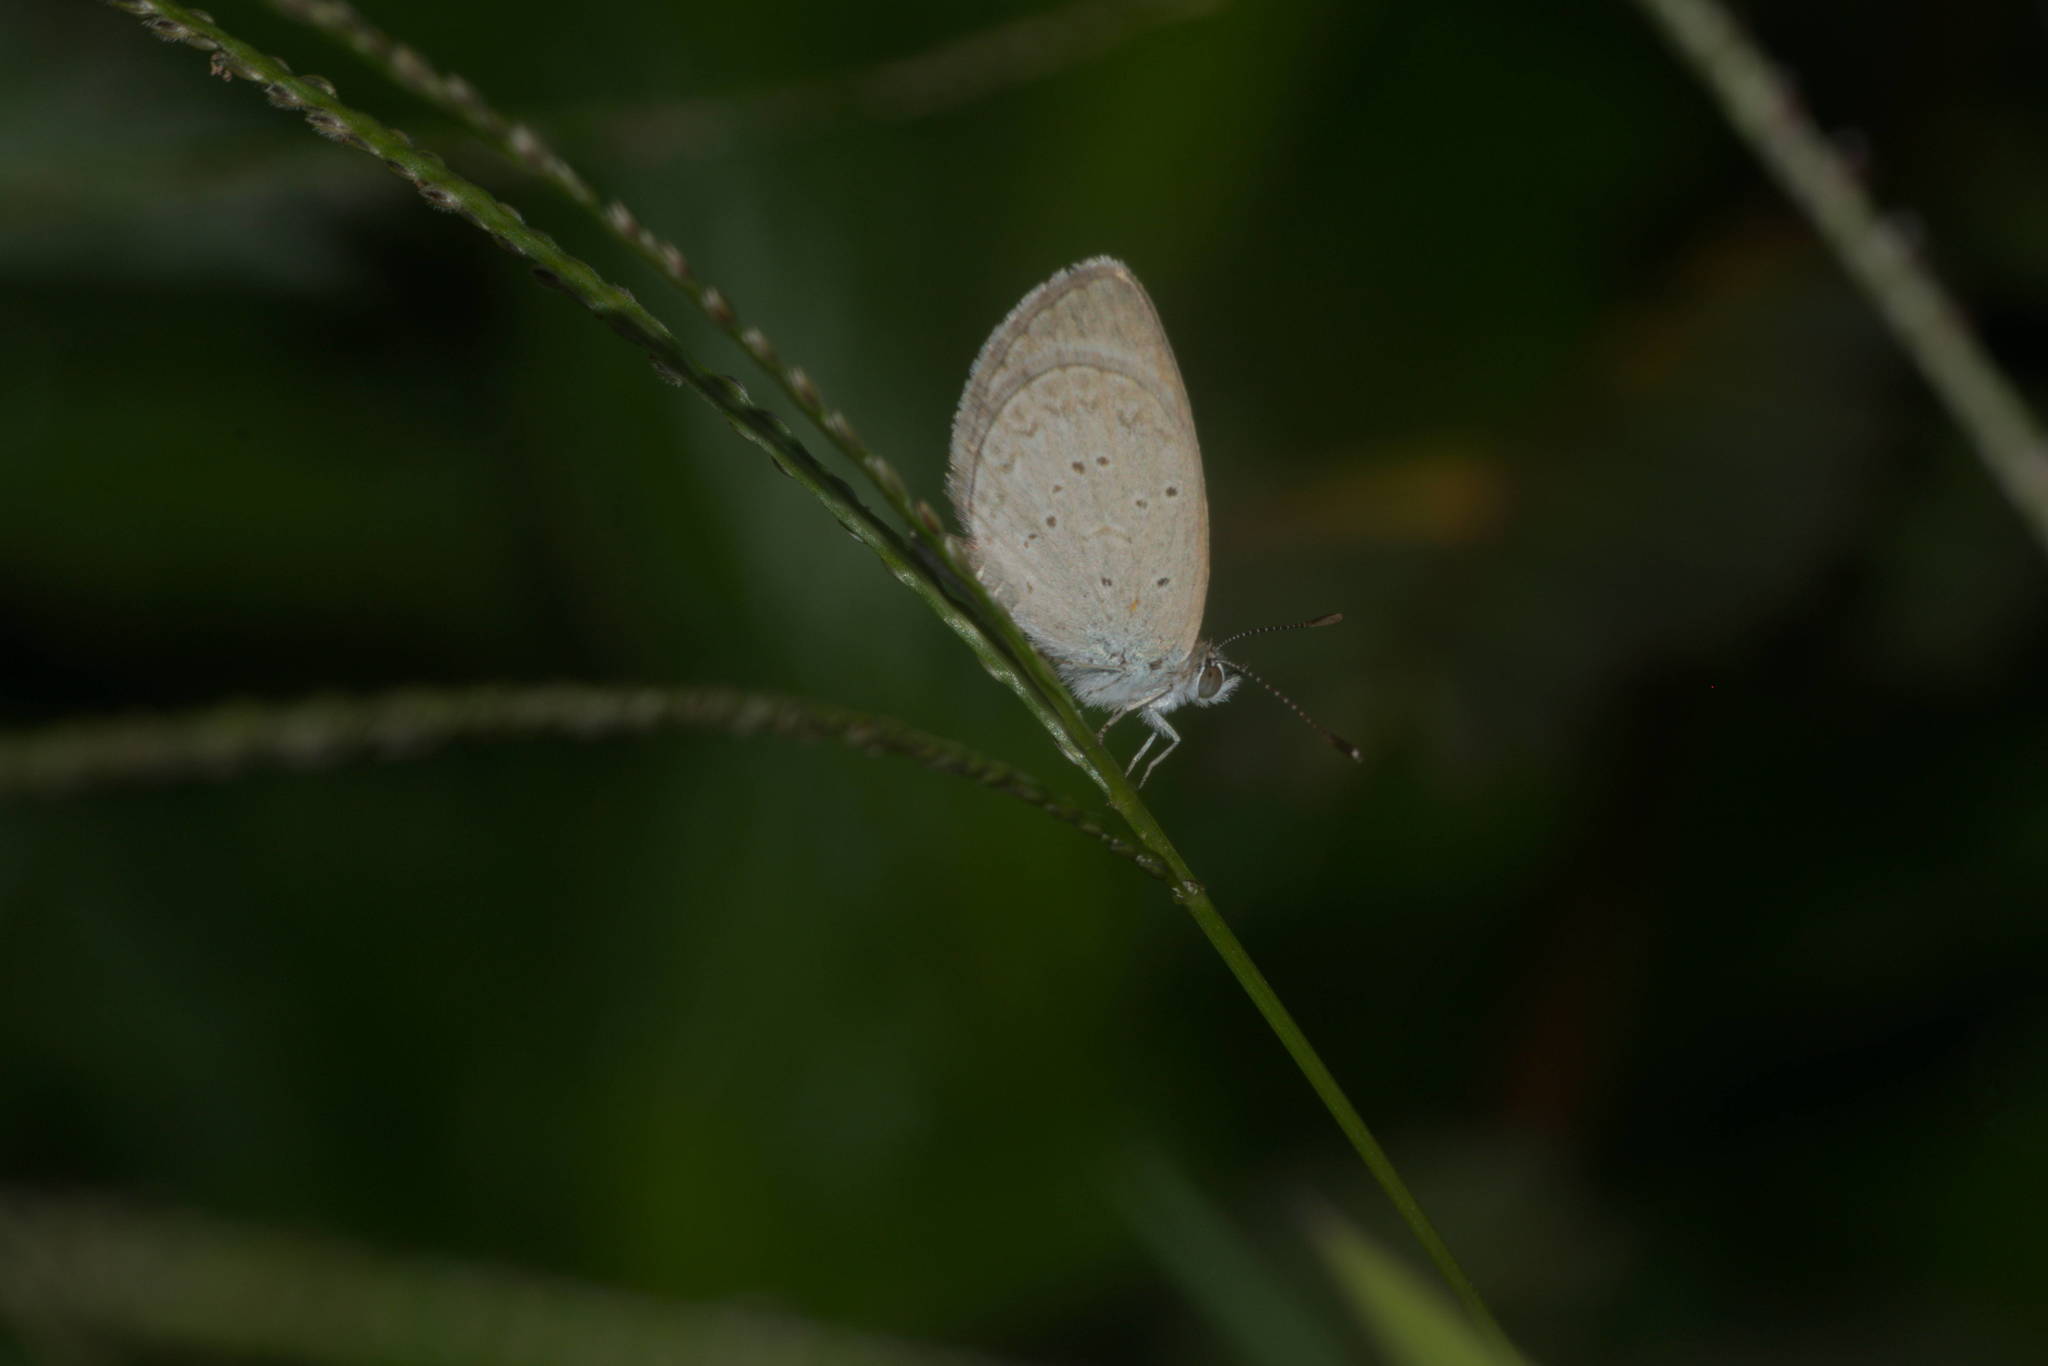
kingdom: Animalia
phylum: Arthropoda
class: Insecta
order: Lepidoptera
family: Lycaenidae
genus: Zizina
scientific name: Zizina otis
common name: Lesser grass blue
